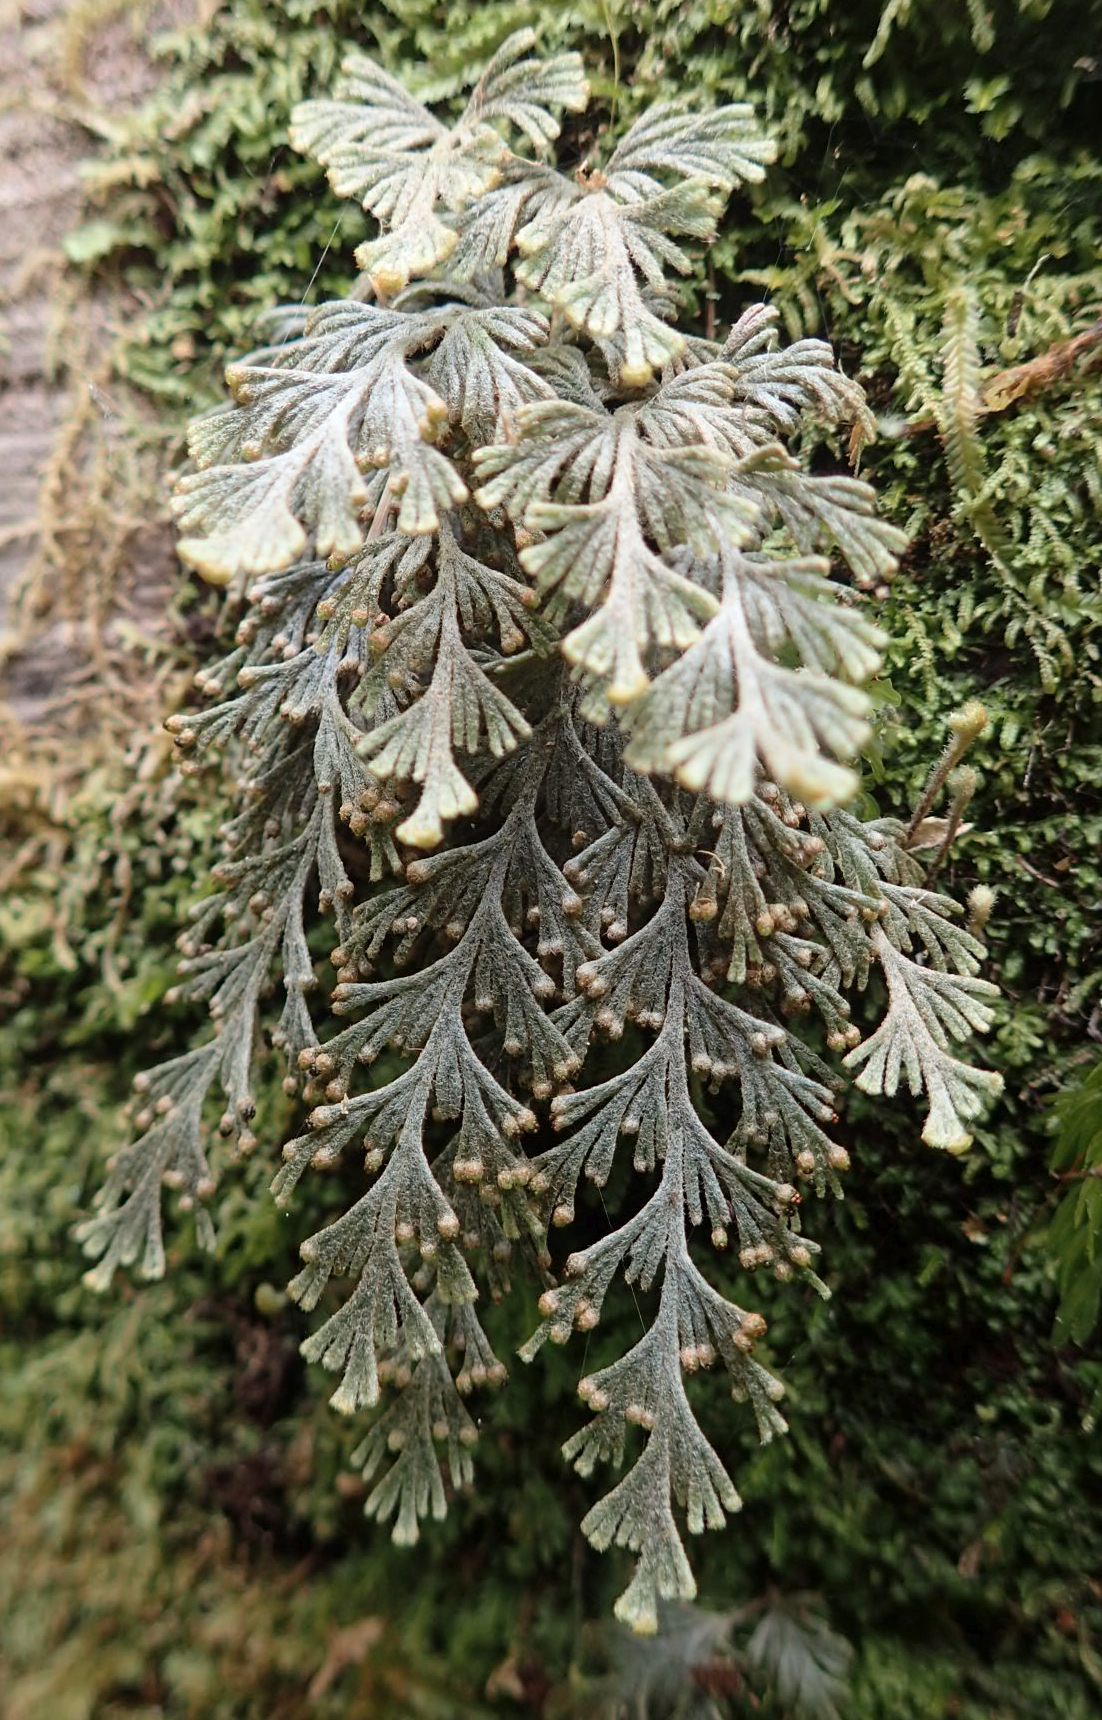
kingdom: Plantae
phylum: Tracheophyta
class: Polypodiopsida
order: Hymenophyllales
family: Hymenophyllaceae
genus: Hymenophyllum
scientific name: Hymenophyllum malingii
